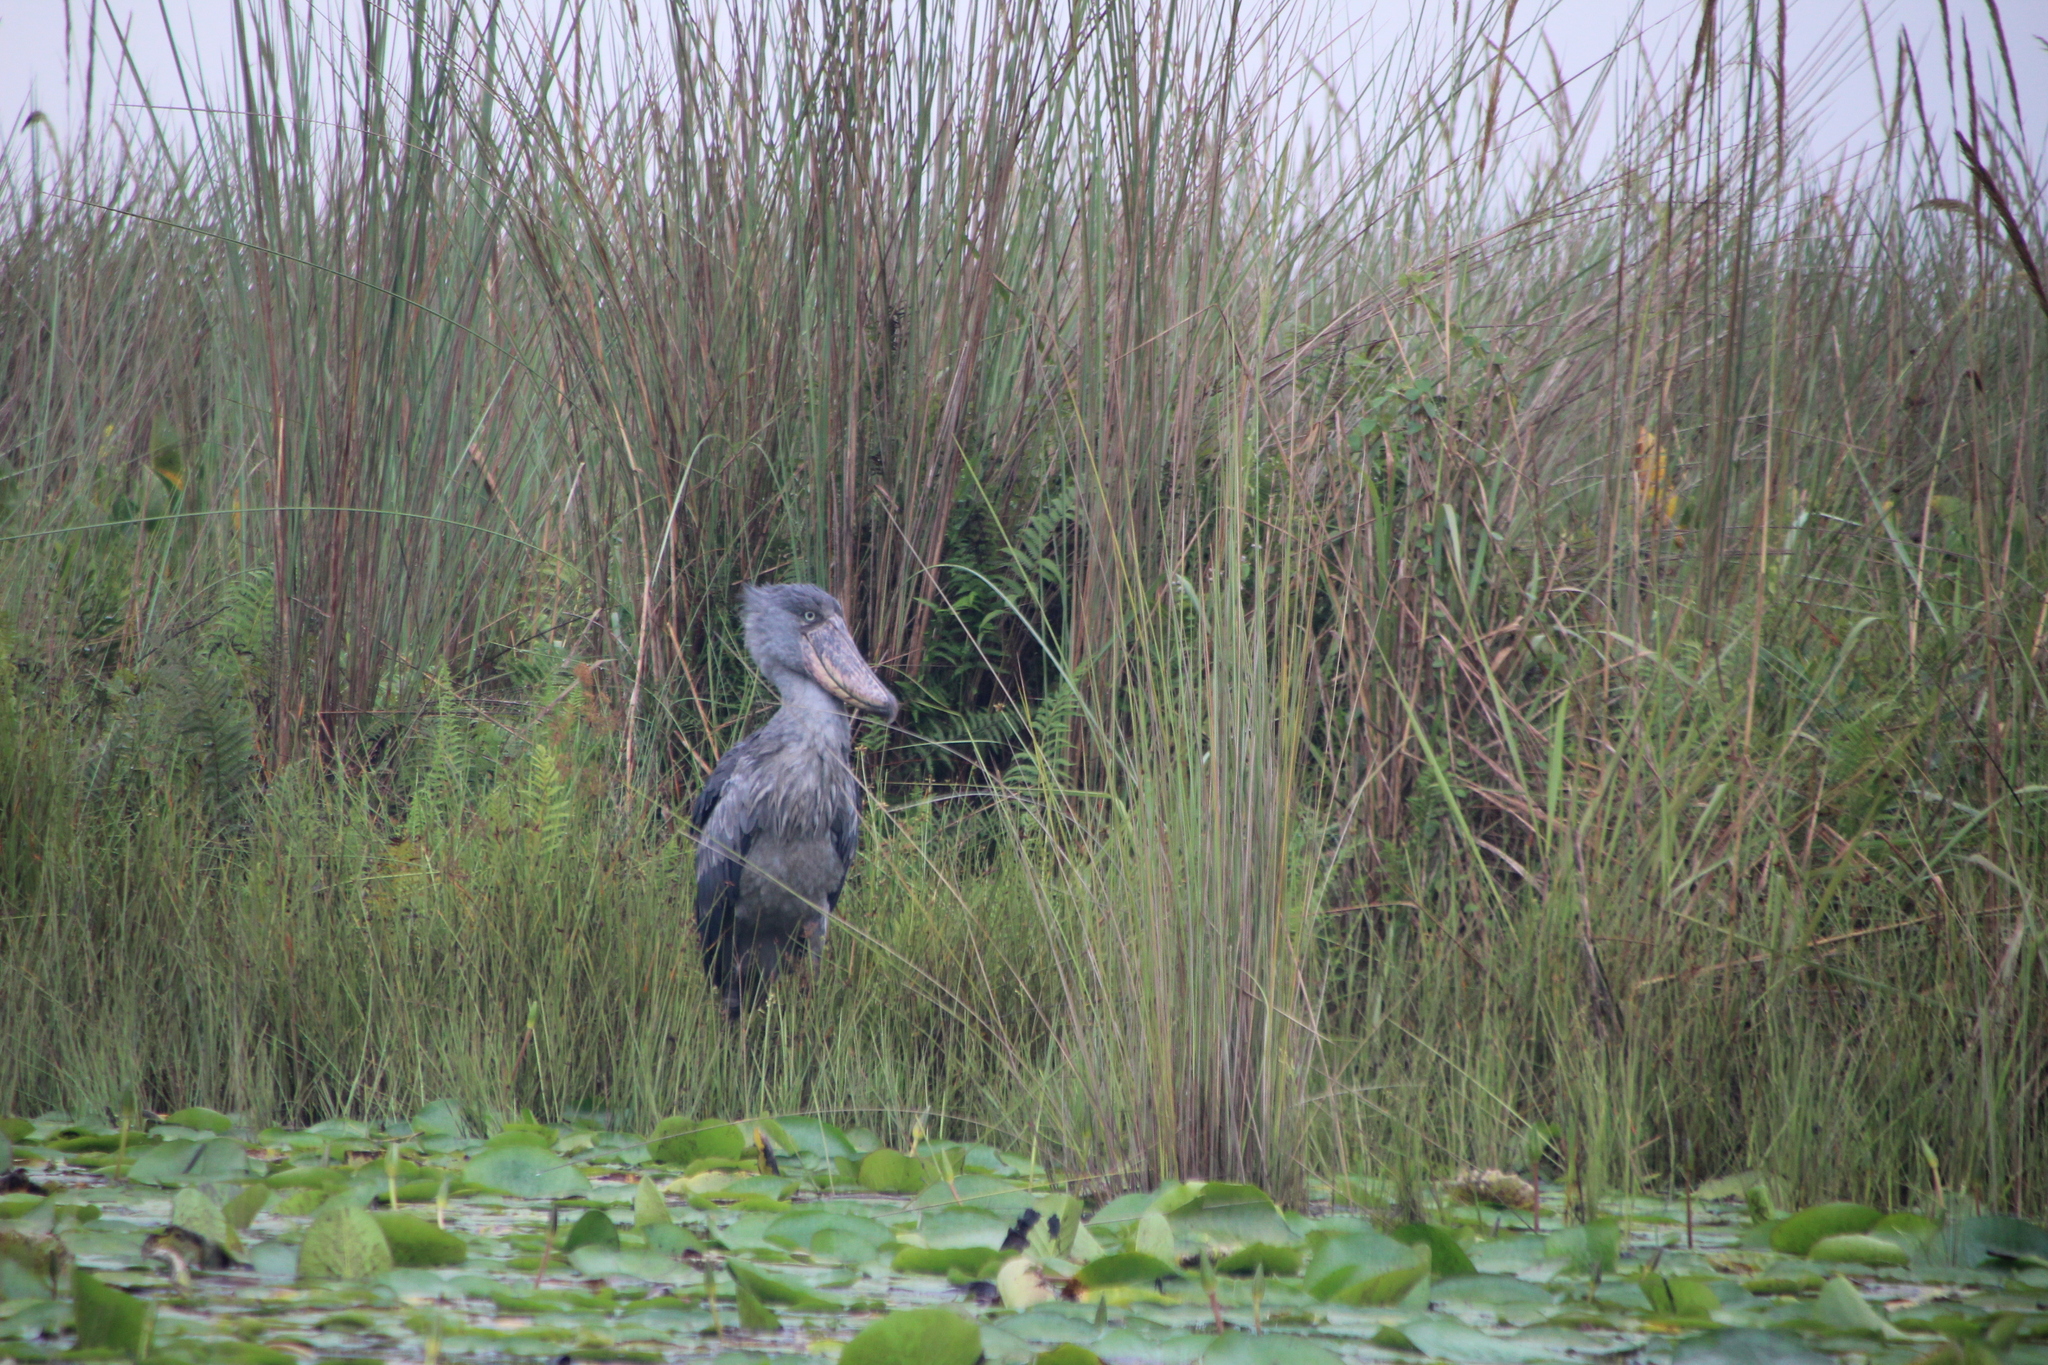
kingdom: Animalia
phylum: Chordata
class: Aves
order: Pelecaniformes
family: Balaenicipitidae
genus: Balaeniceps
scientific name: Balaeniceps rex
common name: Shoebill
